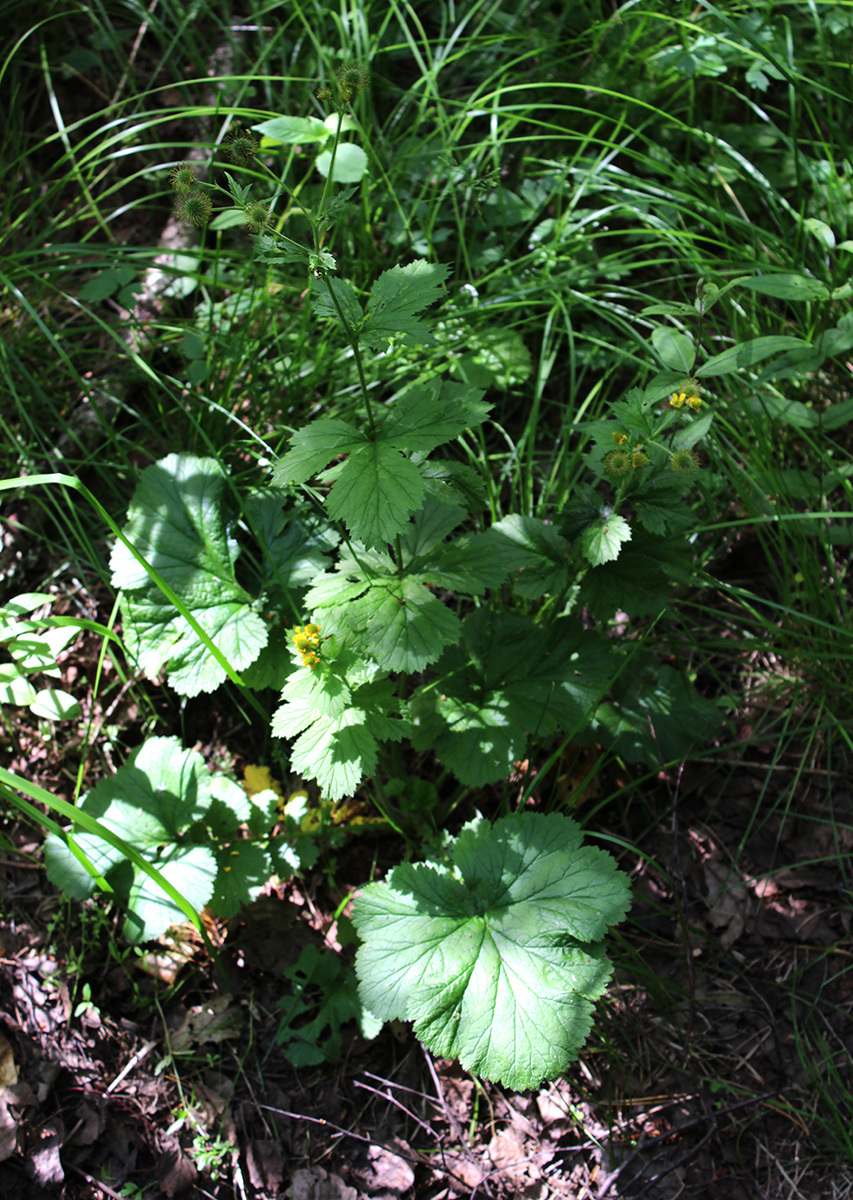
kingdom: Plantae
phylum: Tracheophyta
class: Magnoliopsida
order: Rosales
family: Rosaceae
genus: Geum
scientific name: Geum macrophyllum
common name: Large-leaved avens
